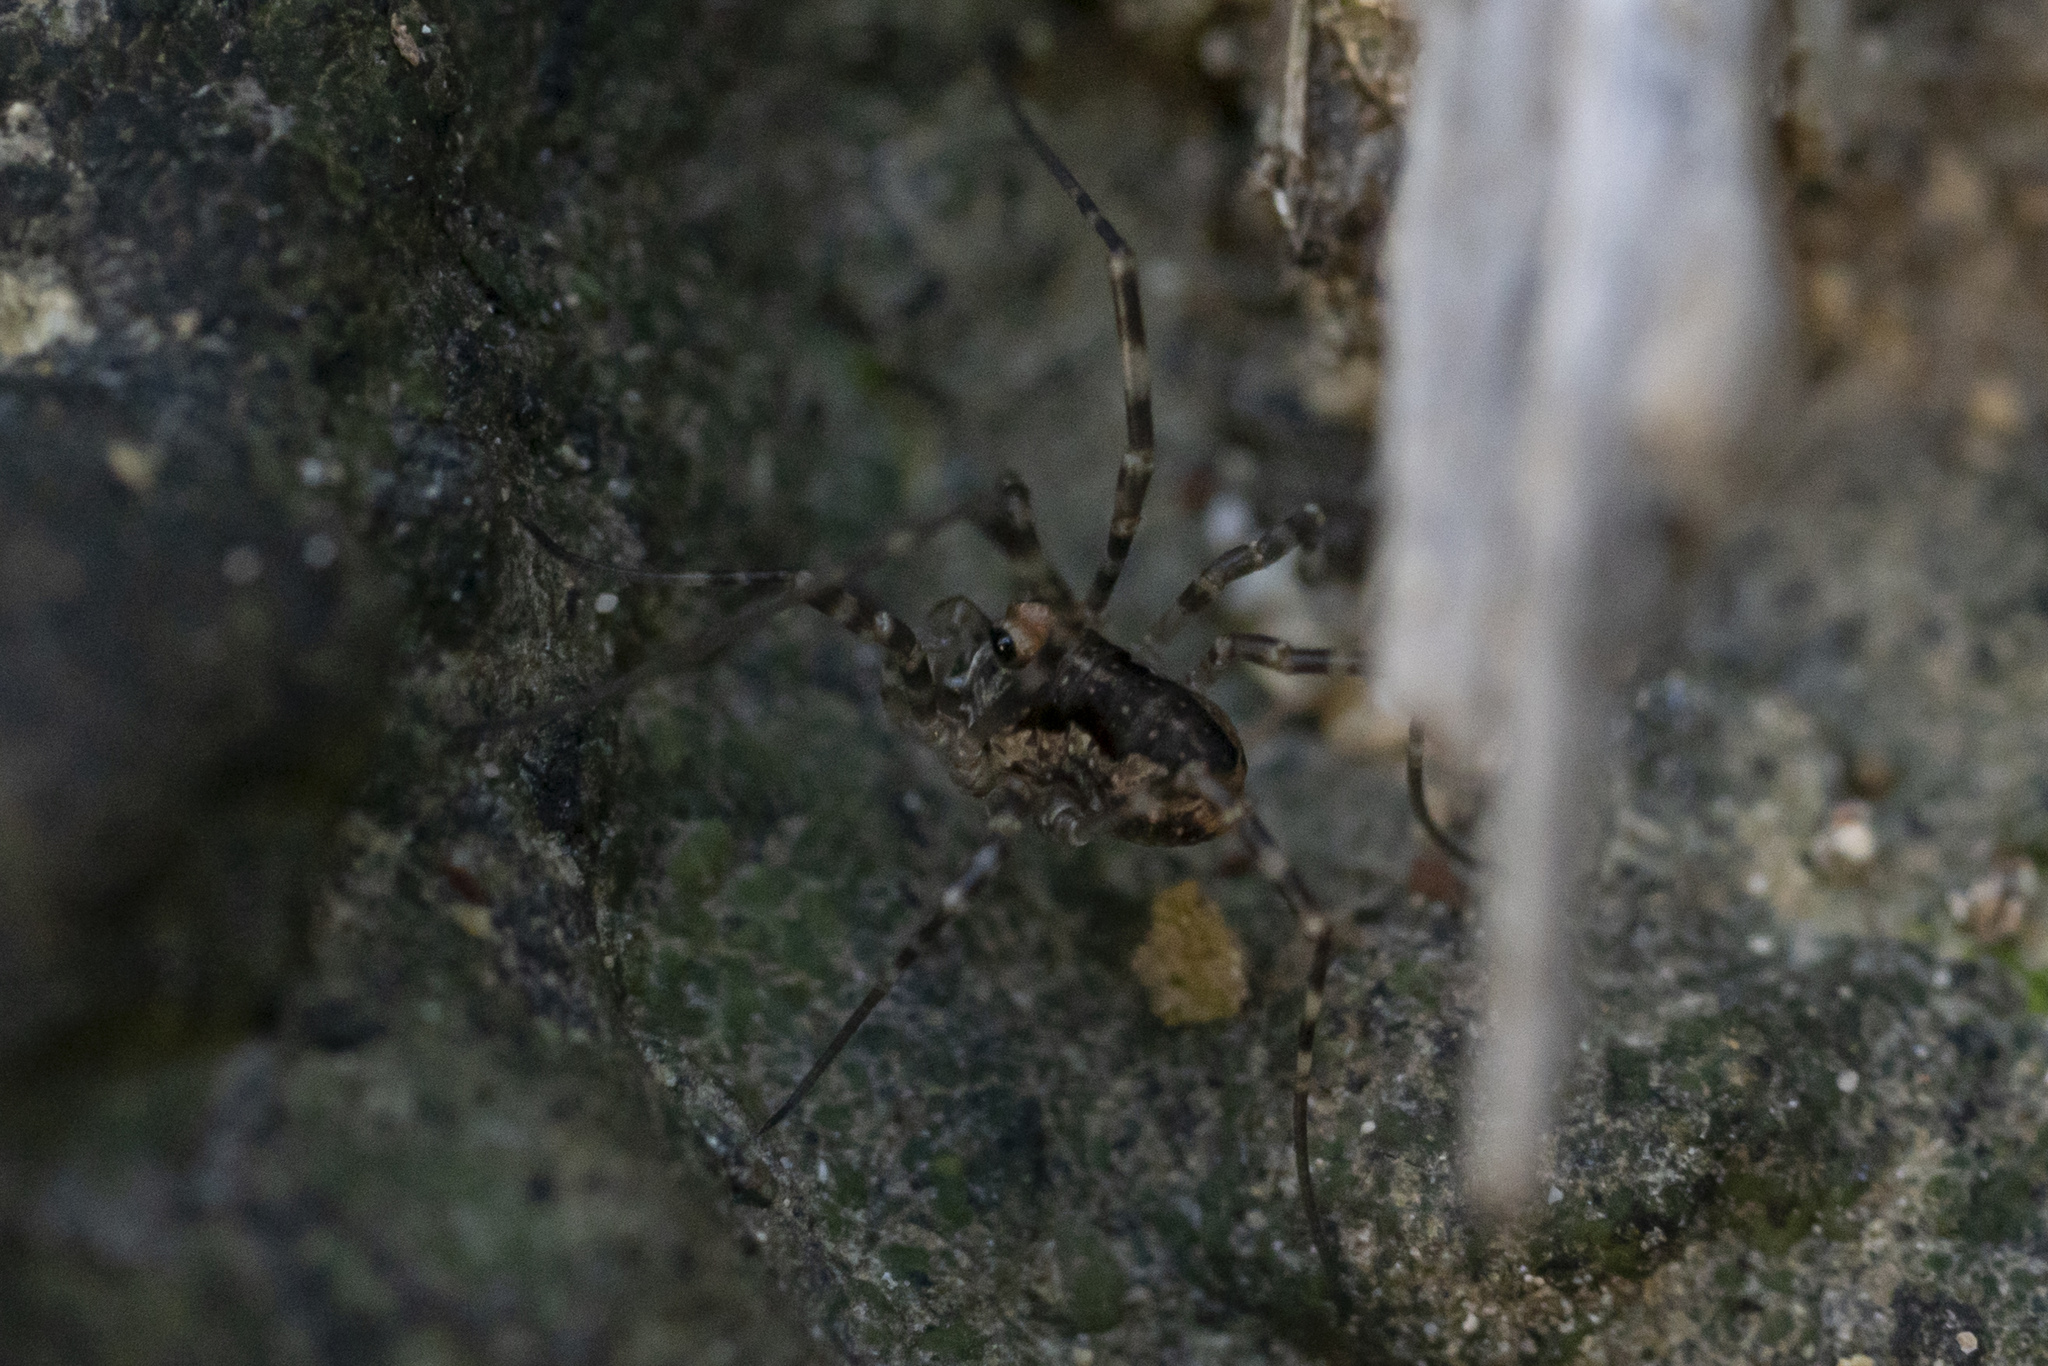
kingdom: Animalia
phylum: Arthropoda
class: Arachnida
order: Opiliones
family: Phalangiidae
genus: Rafalskia
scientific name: Rafalskia cretica
